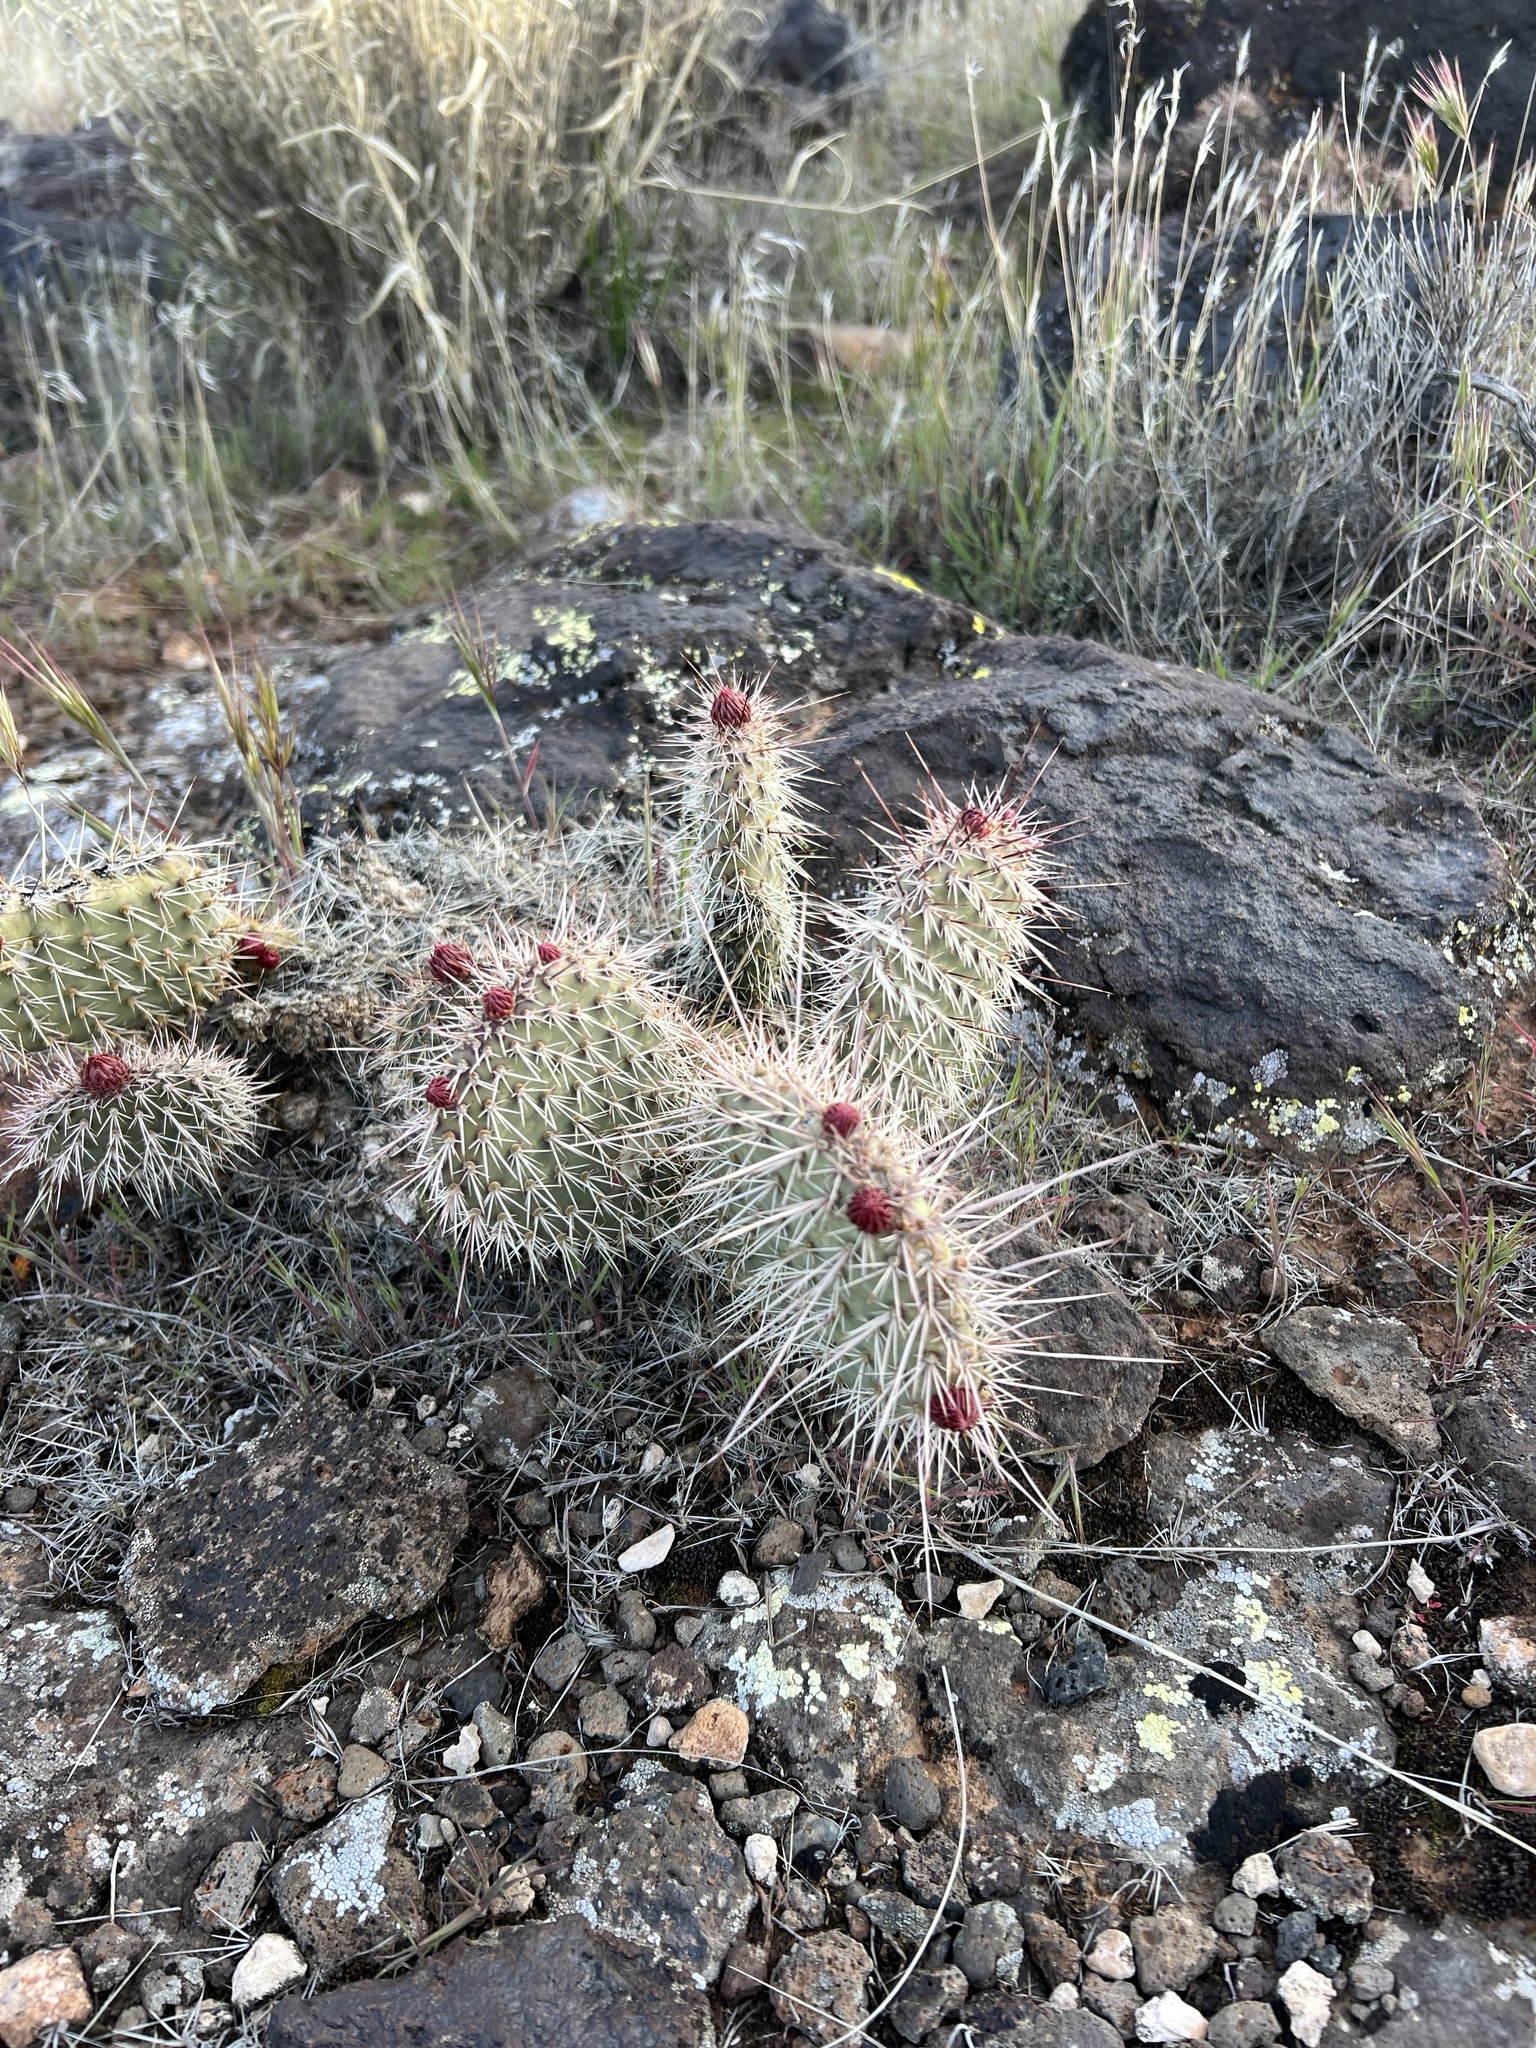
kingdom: Plantae
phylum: Tracheophyta
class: Magnoliopsida
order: Caryophyllales
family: Cactaceae
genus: Opuntia
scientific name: Opuntia polyacantha
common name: Plains prickly-pear
